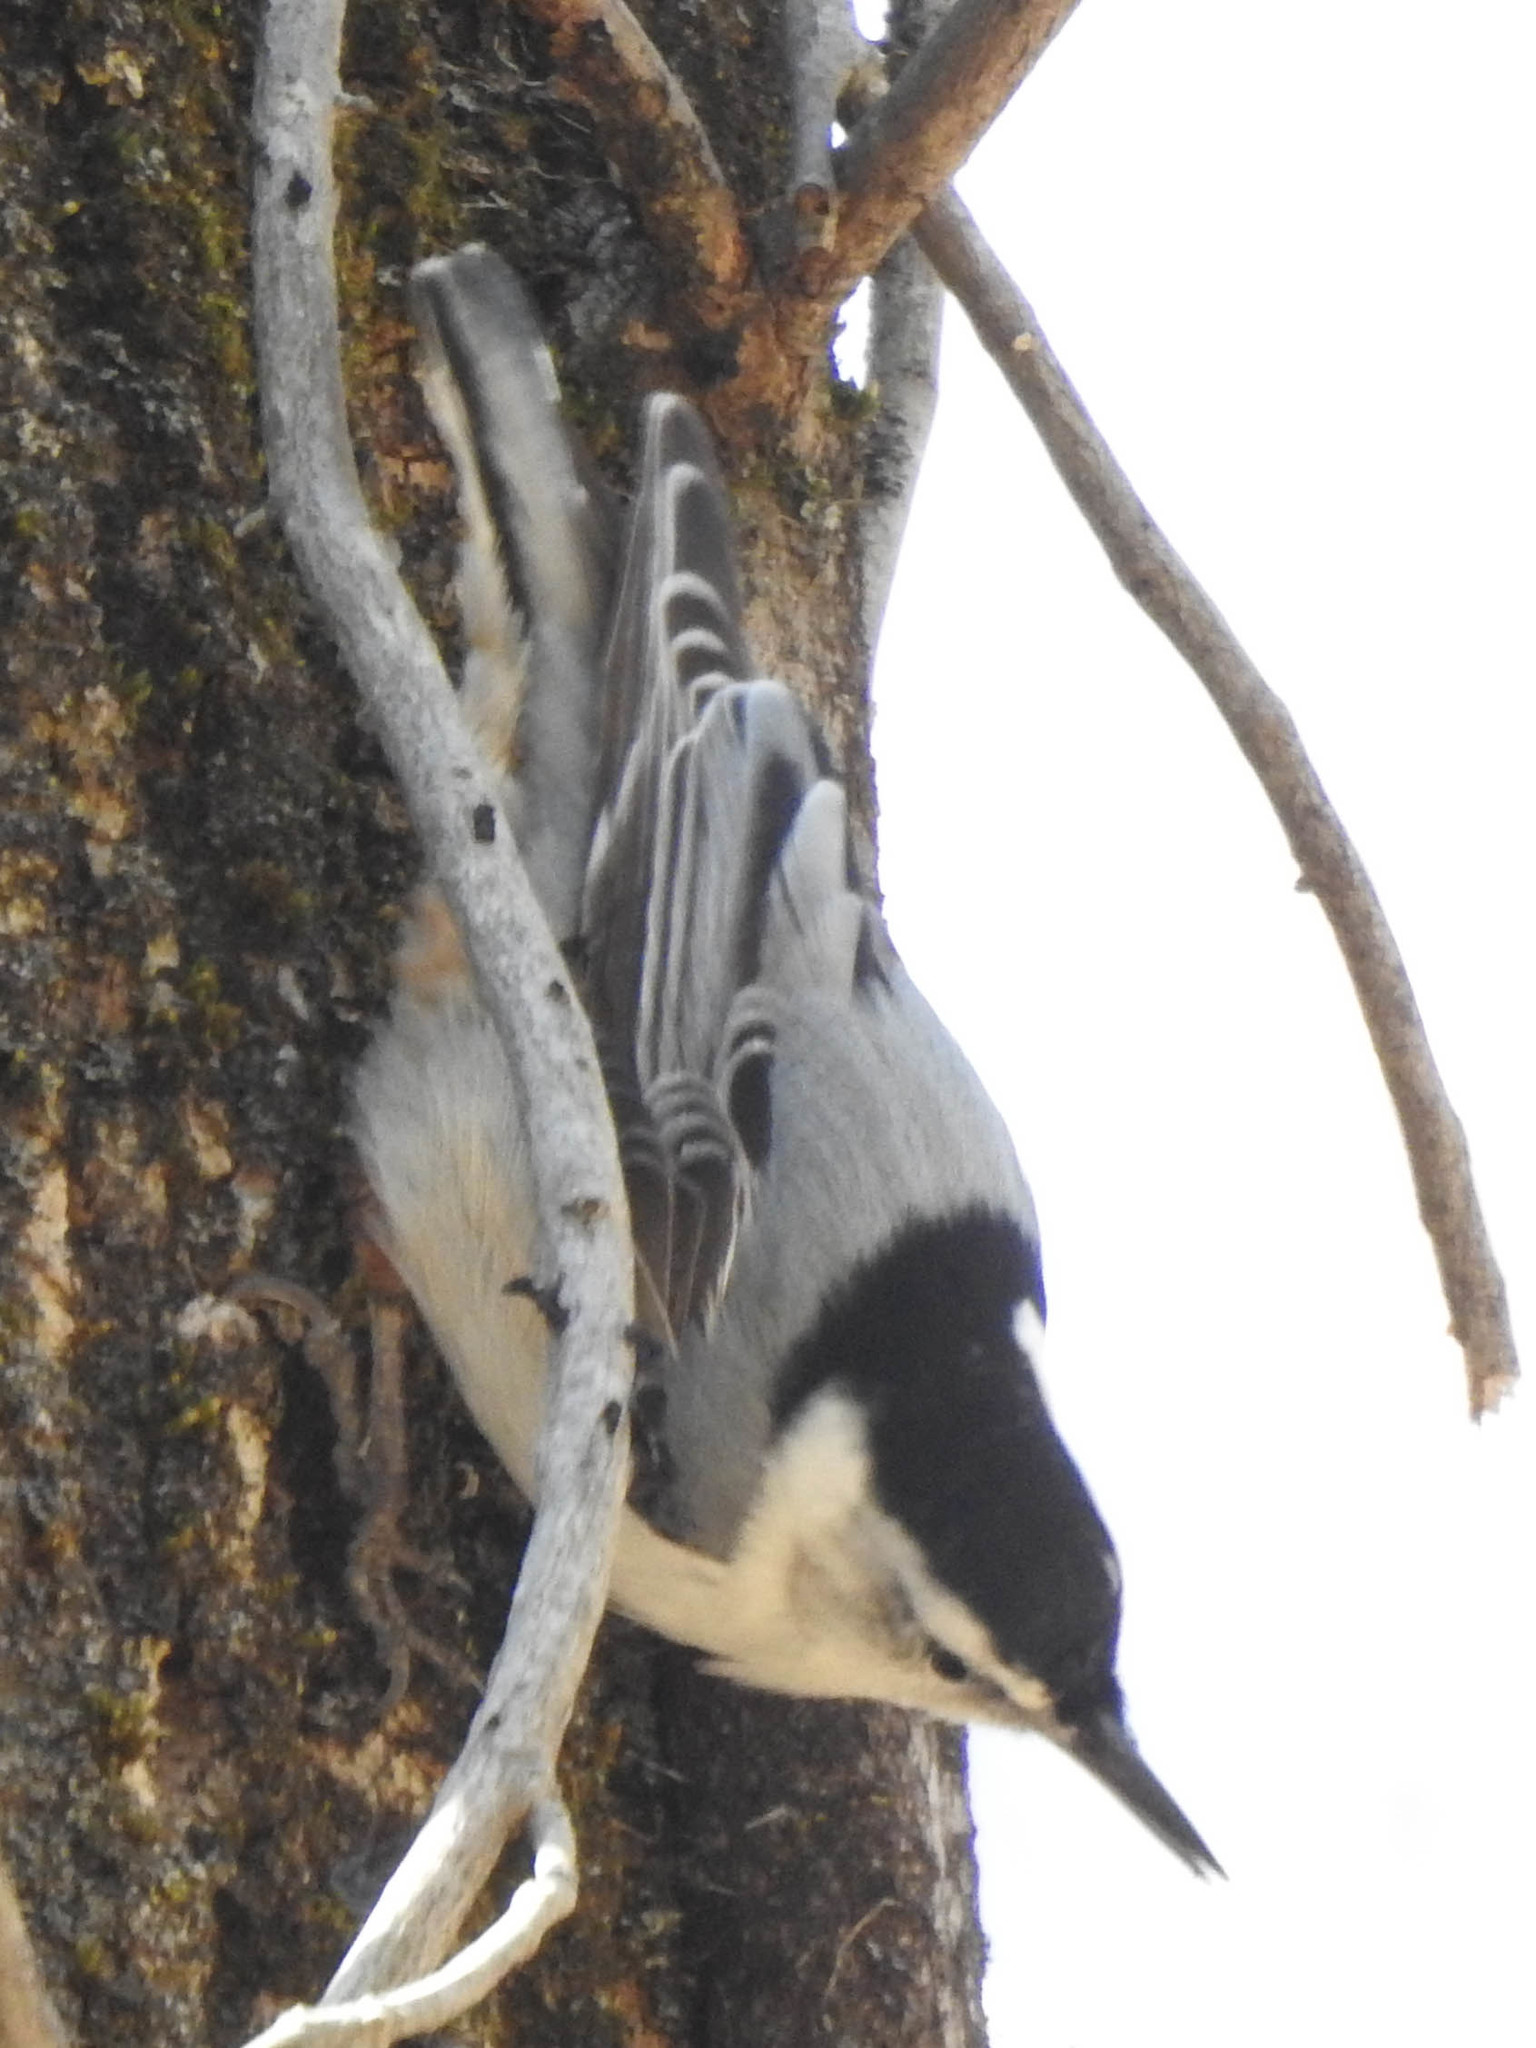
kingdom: Animalia
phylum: Chordata
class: Aves
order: Passeriformes
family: Sittidae
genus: Sitta
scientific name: Sitta carolinensis
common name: White-breasted nuthatch
